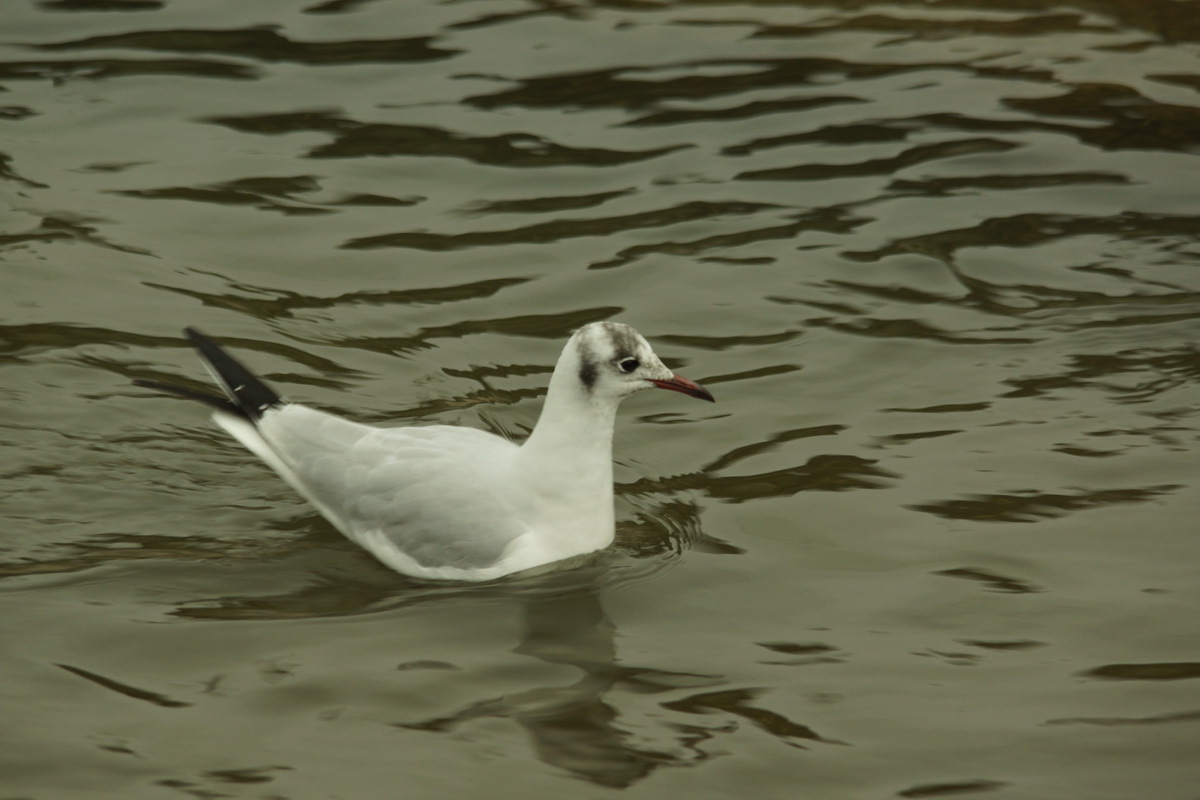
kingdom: Animalia
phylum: Chordata
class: Aves
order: Charadriiformes
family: Laridae
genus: Chroicocephalus
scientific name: Chroicocephalus ridibundus
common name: Black-headed gull
